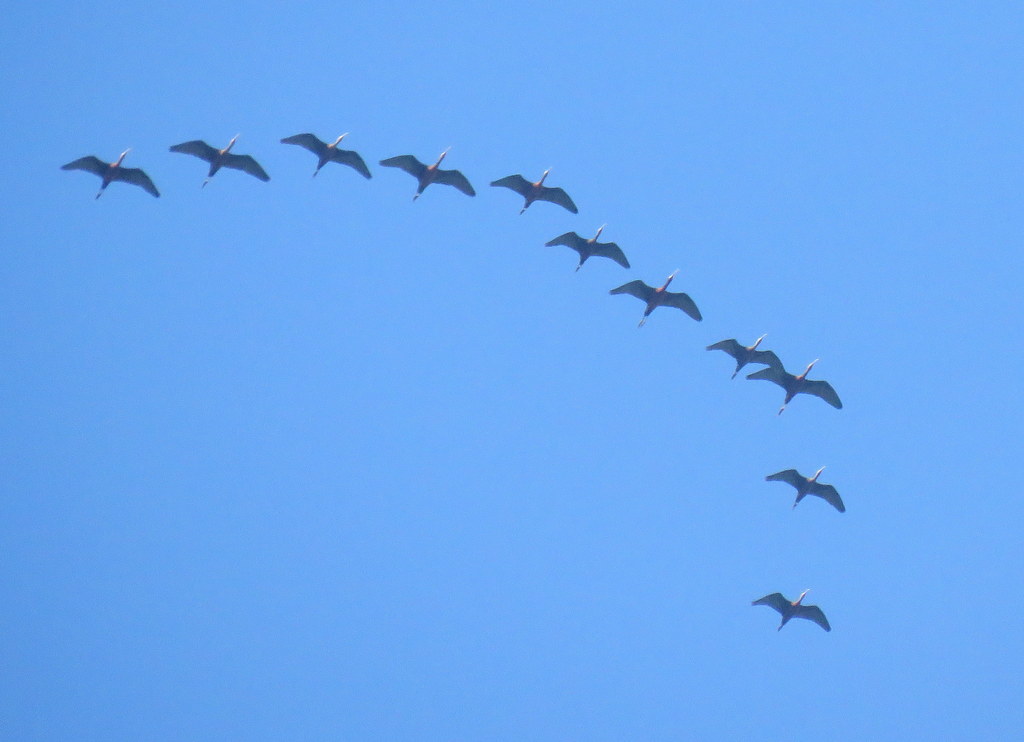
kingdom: Animalia
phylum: Chordata
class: Aves
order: Pelecaniformes
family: Threskiornithidae
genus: Plegadis
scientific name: Plegadis chihi
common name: White-faced ibis
